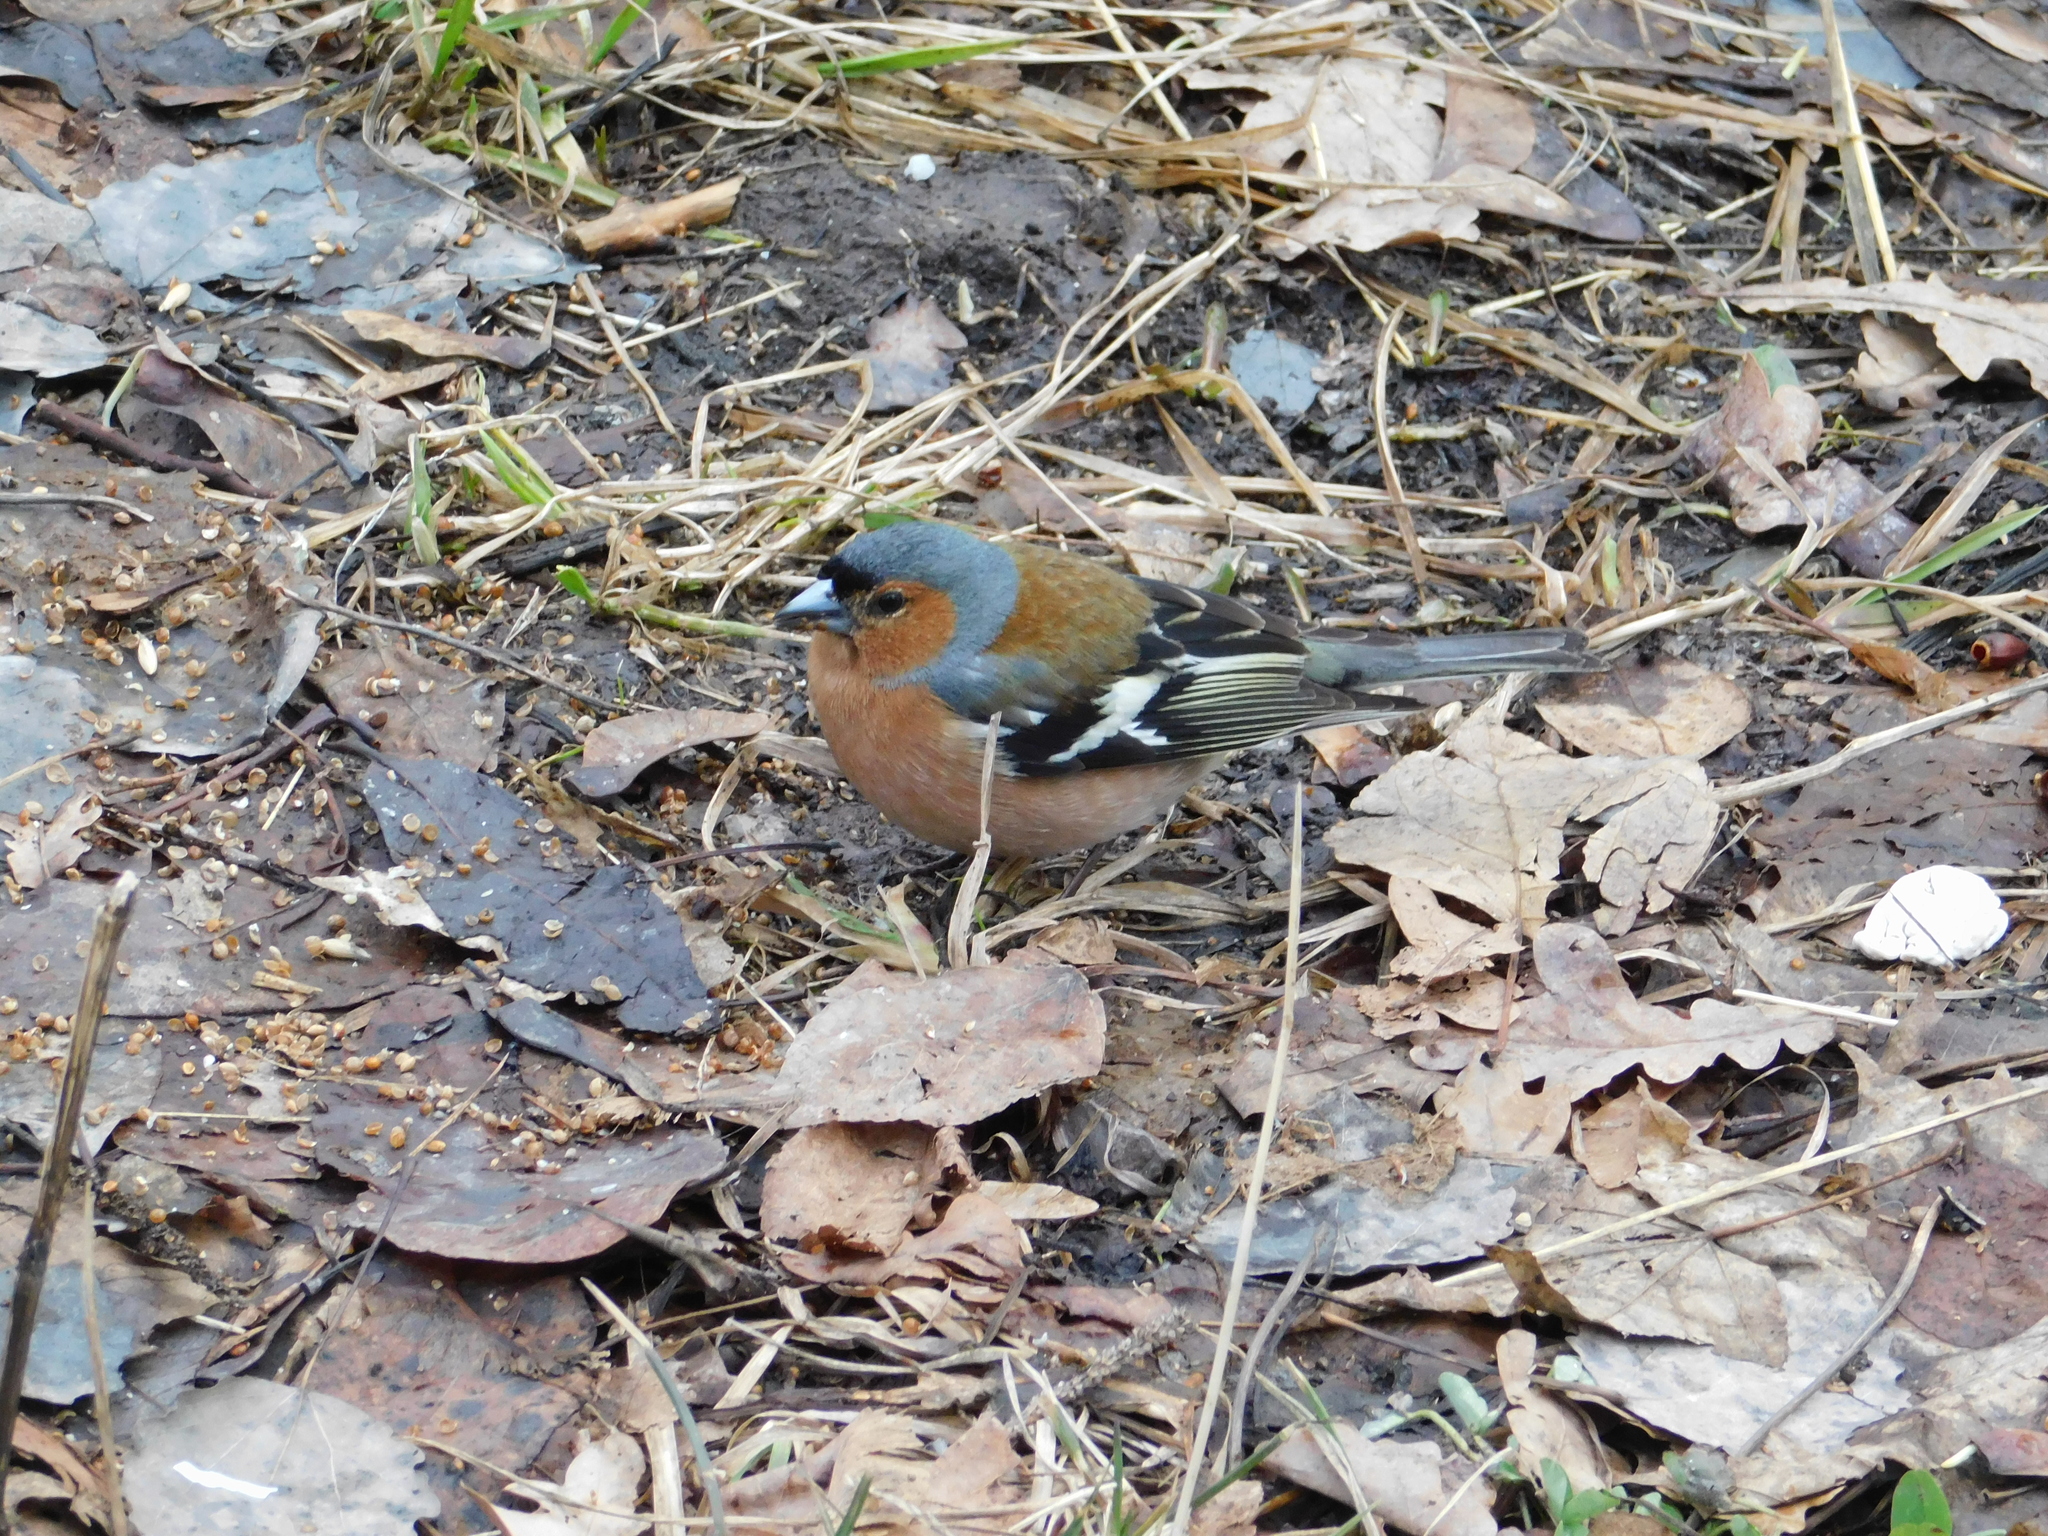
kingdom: Animalia
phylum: Chordata
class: Aves
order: Passeriformes
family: Fringillidae
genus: Fringilla
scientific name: Fringilla coelebs
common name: Common chaffinch
